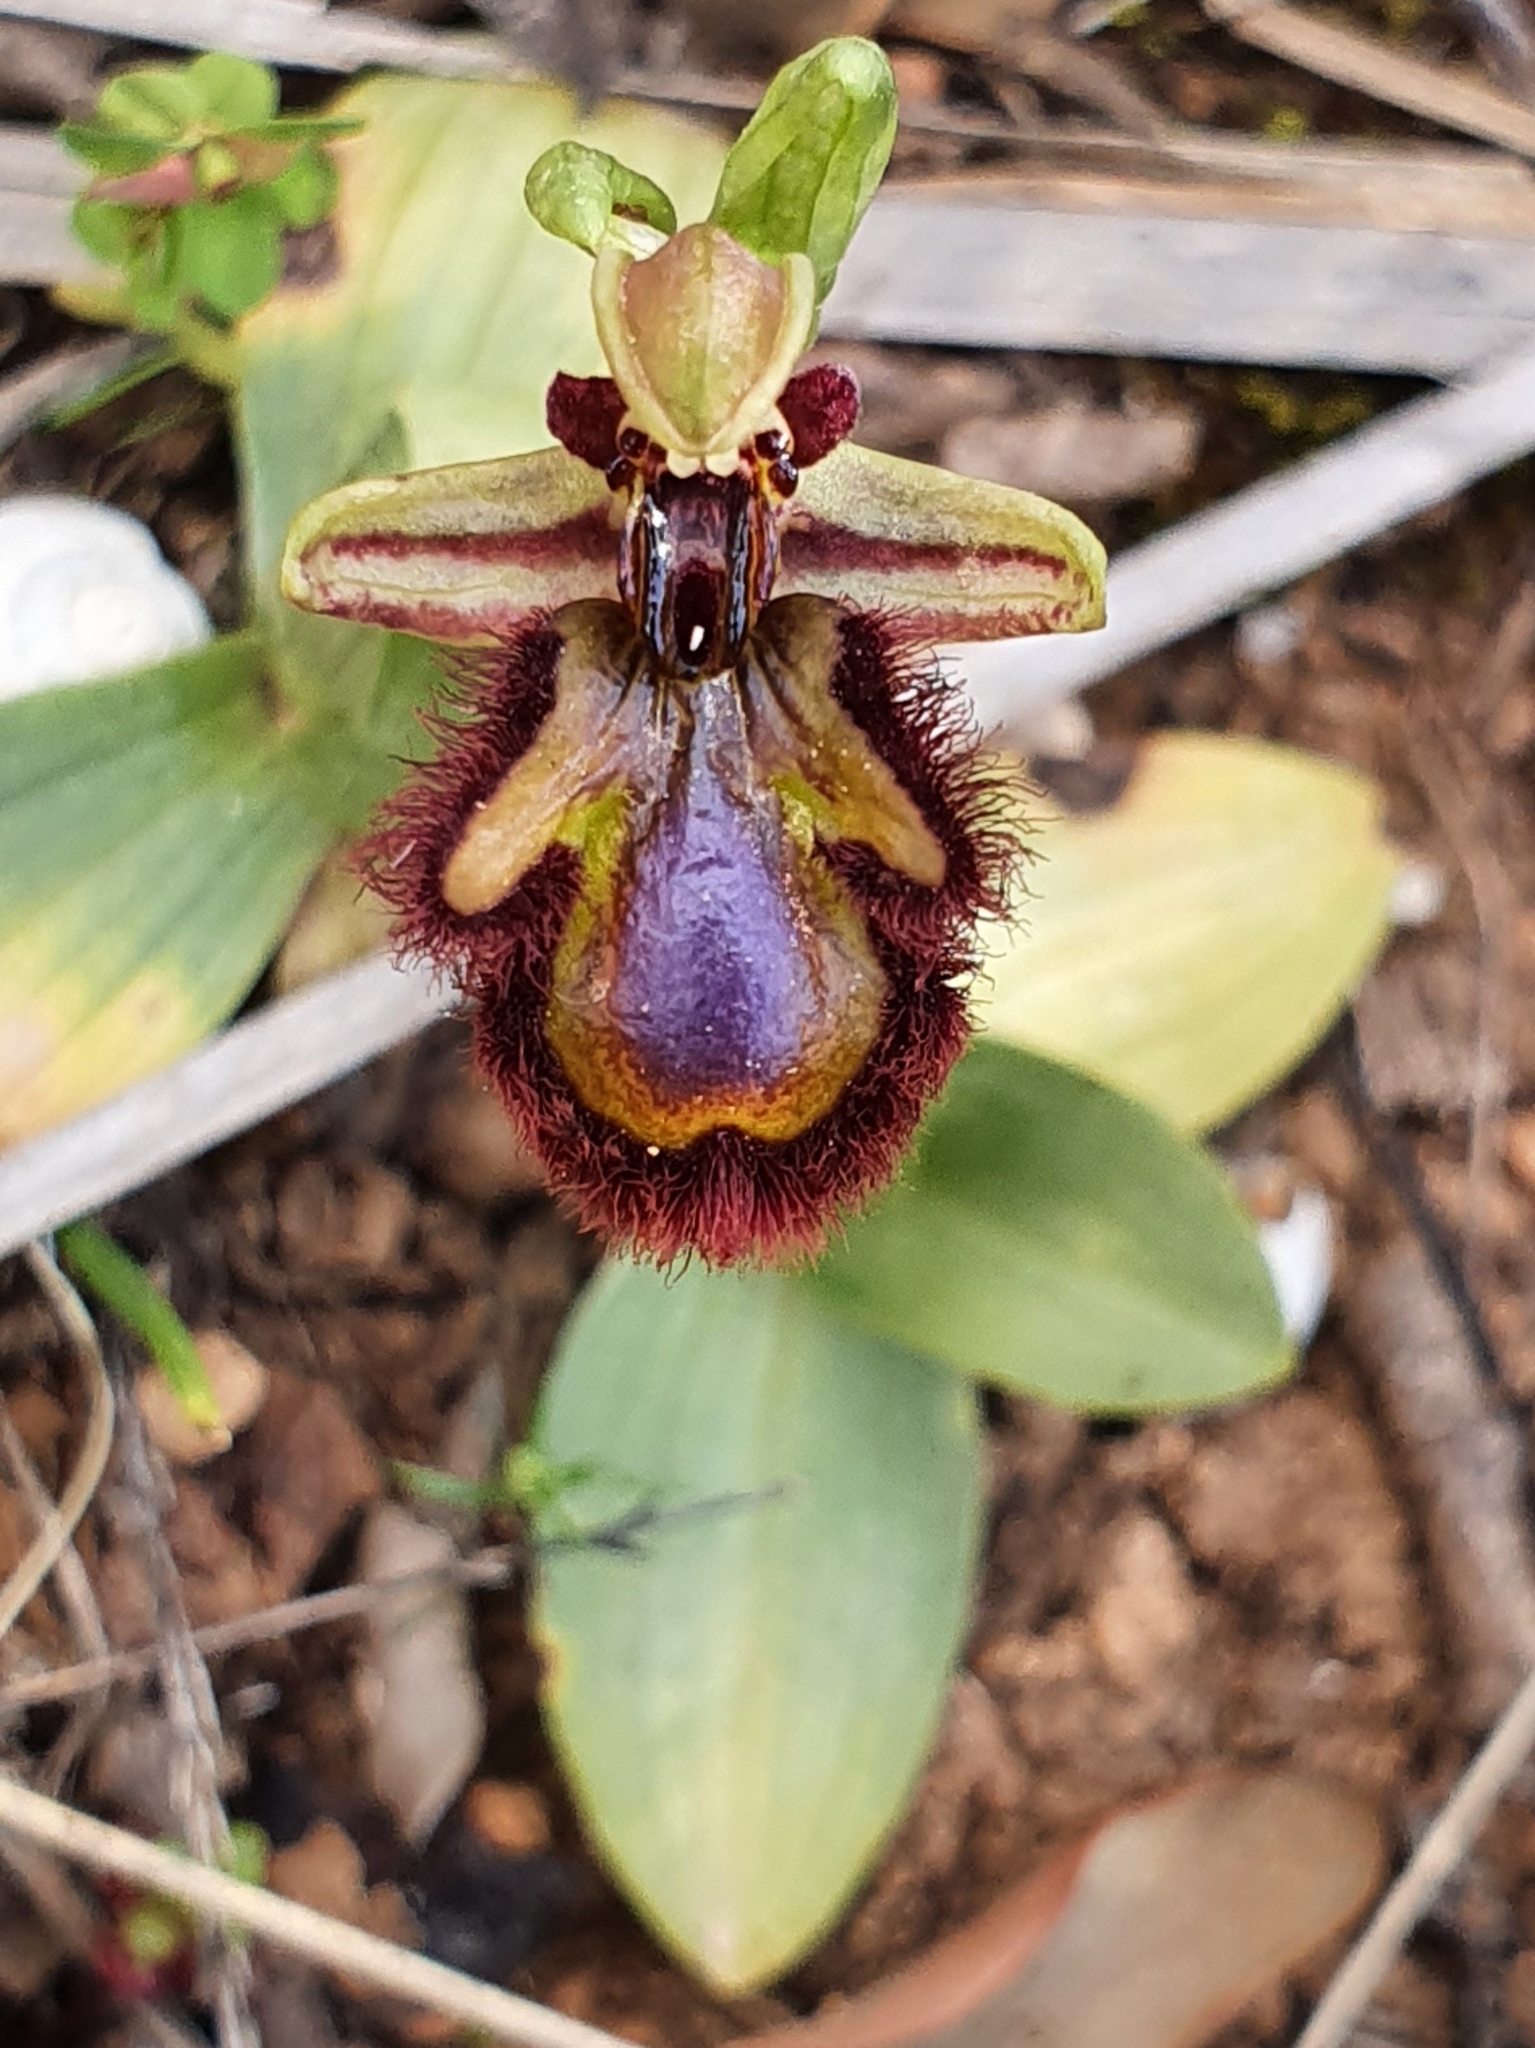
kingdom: Plantae
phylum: Tracheophyta
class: Liliopsida
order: Asparagales
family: Orchidaceae
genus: Ophrys
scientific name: Ophrys speculum
